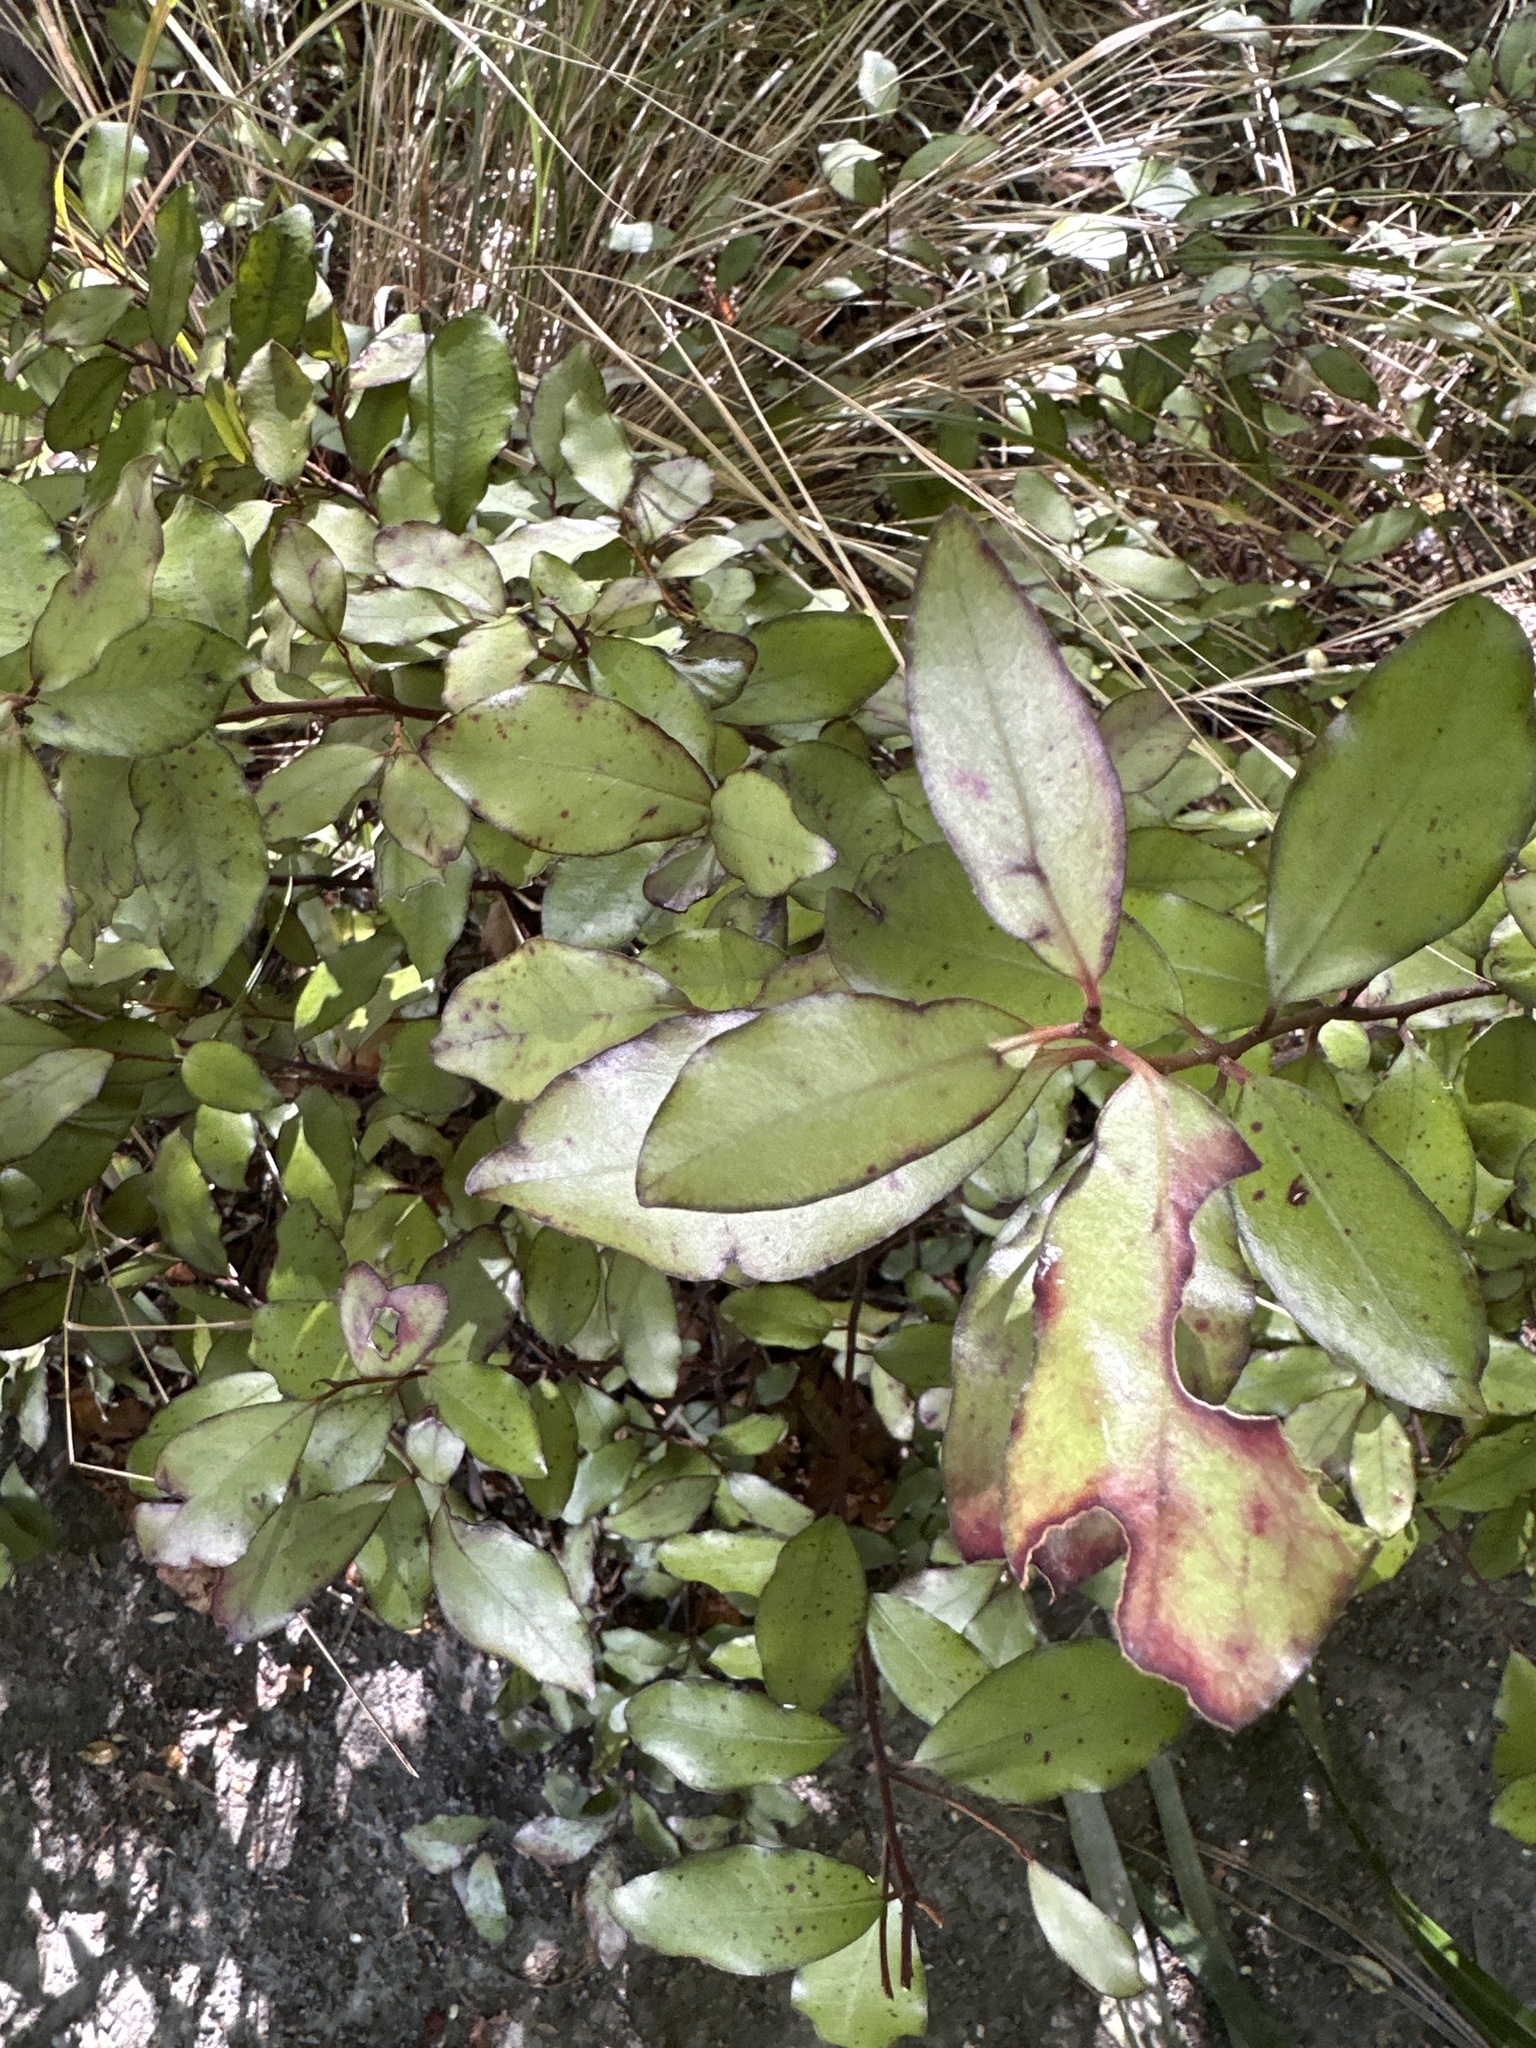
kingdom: Plantae
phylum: Tracheophyta
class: Magnoliopsida
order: Canellales
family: Winteraceae
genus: Pseudowintera
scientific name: Pseudowintera colorata
